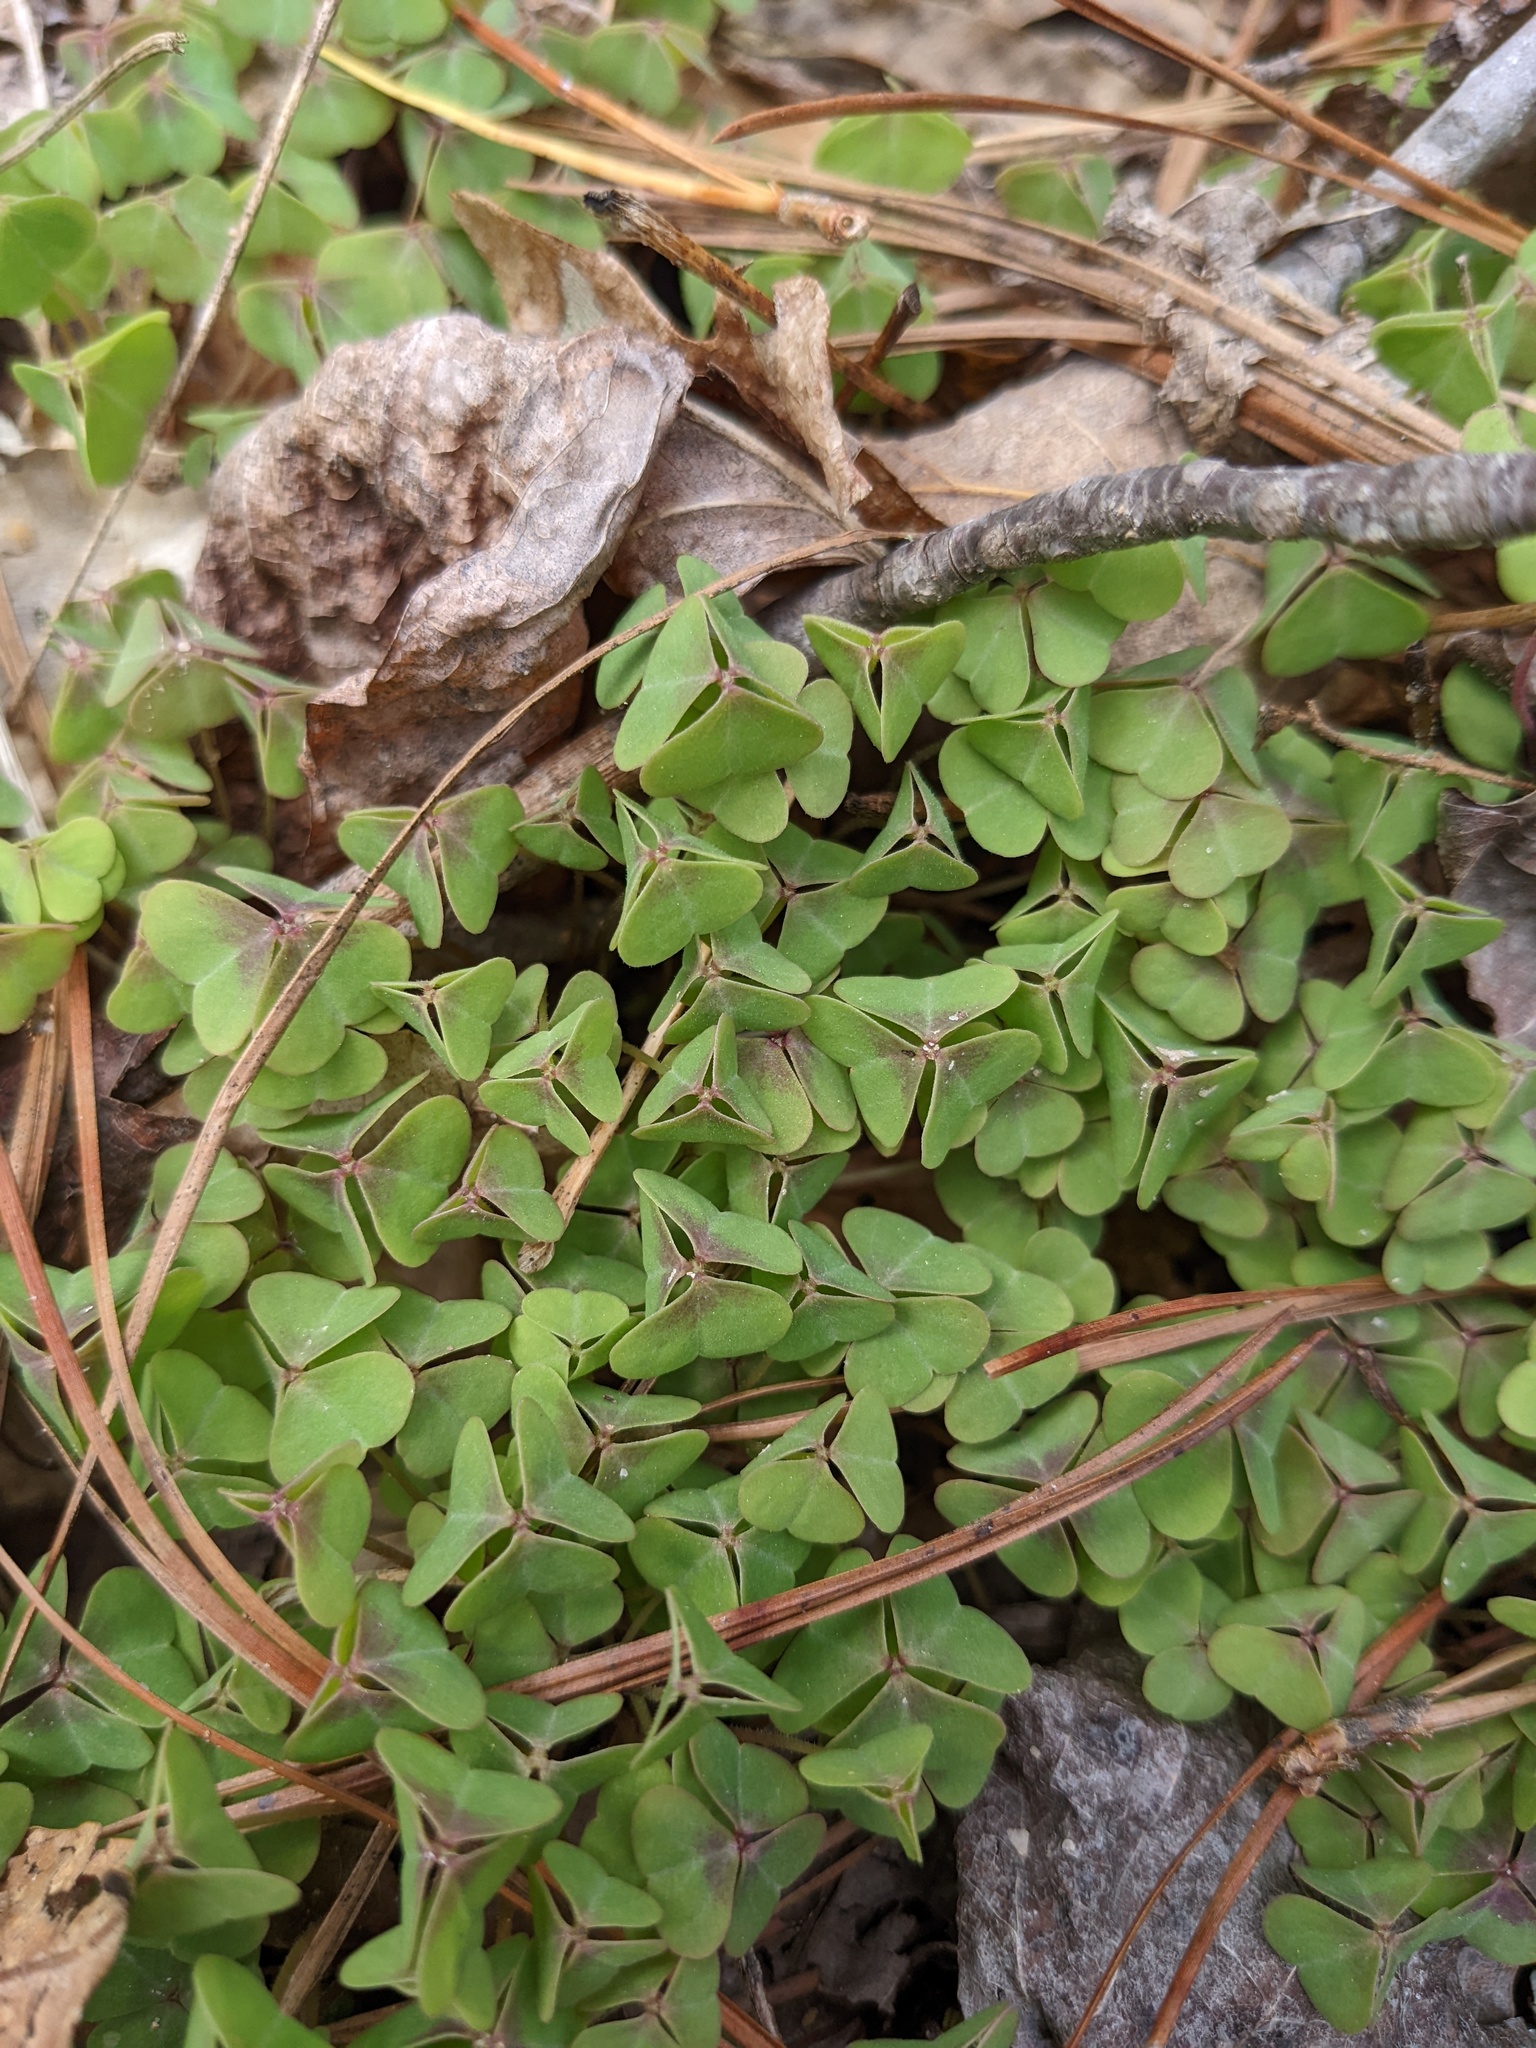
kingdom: Plantae
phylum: Tracheophyta
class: Magnoliopsida
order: Oxalidales
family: Oxalidaceae
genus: Oxalis
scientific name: Oxalis violacea
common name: Violet wood-sorrel
